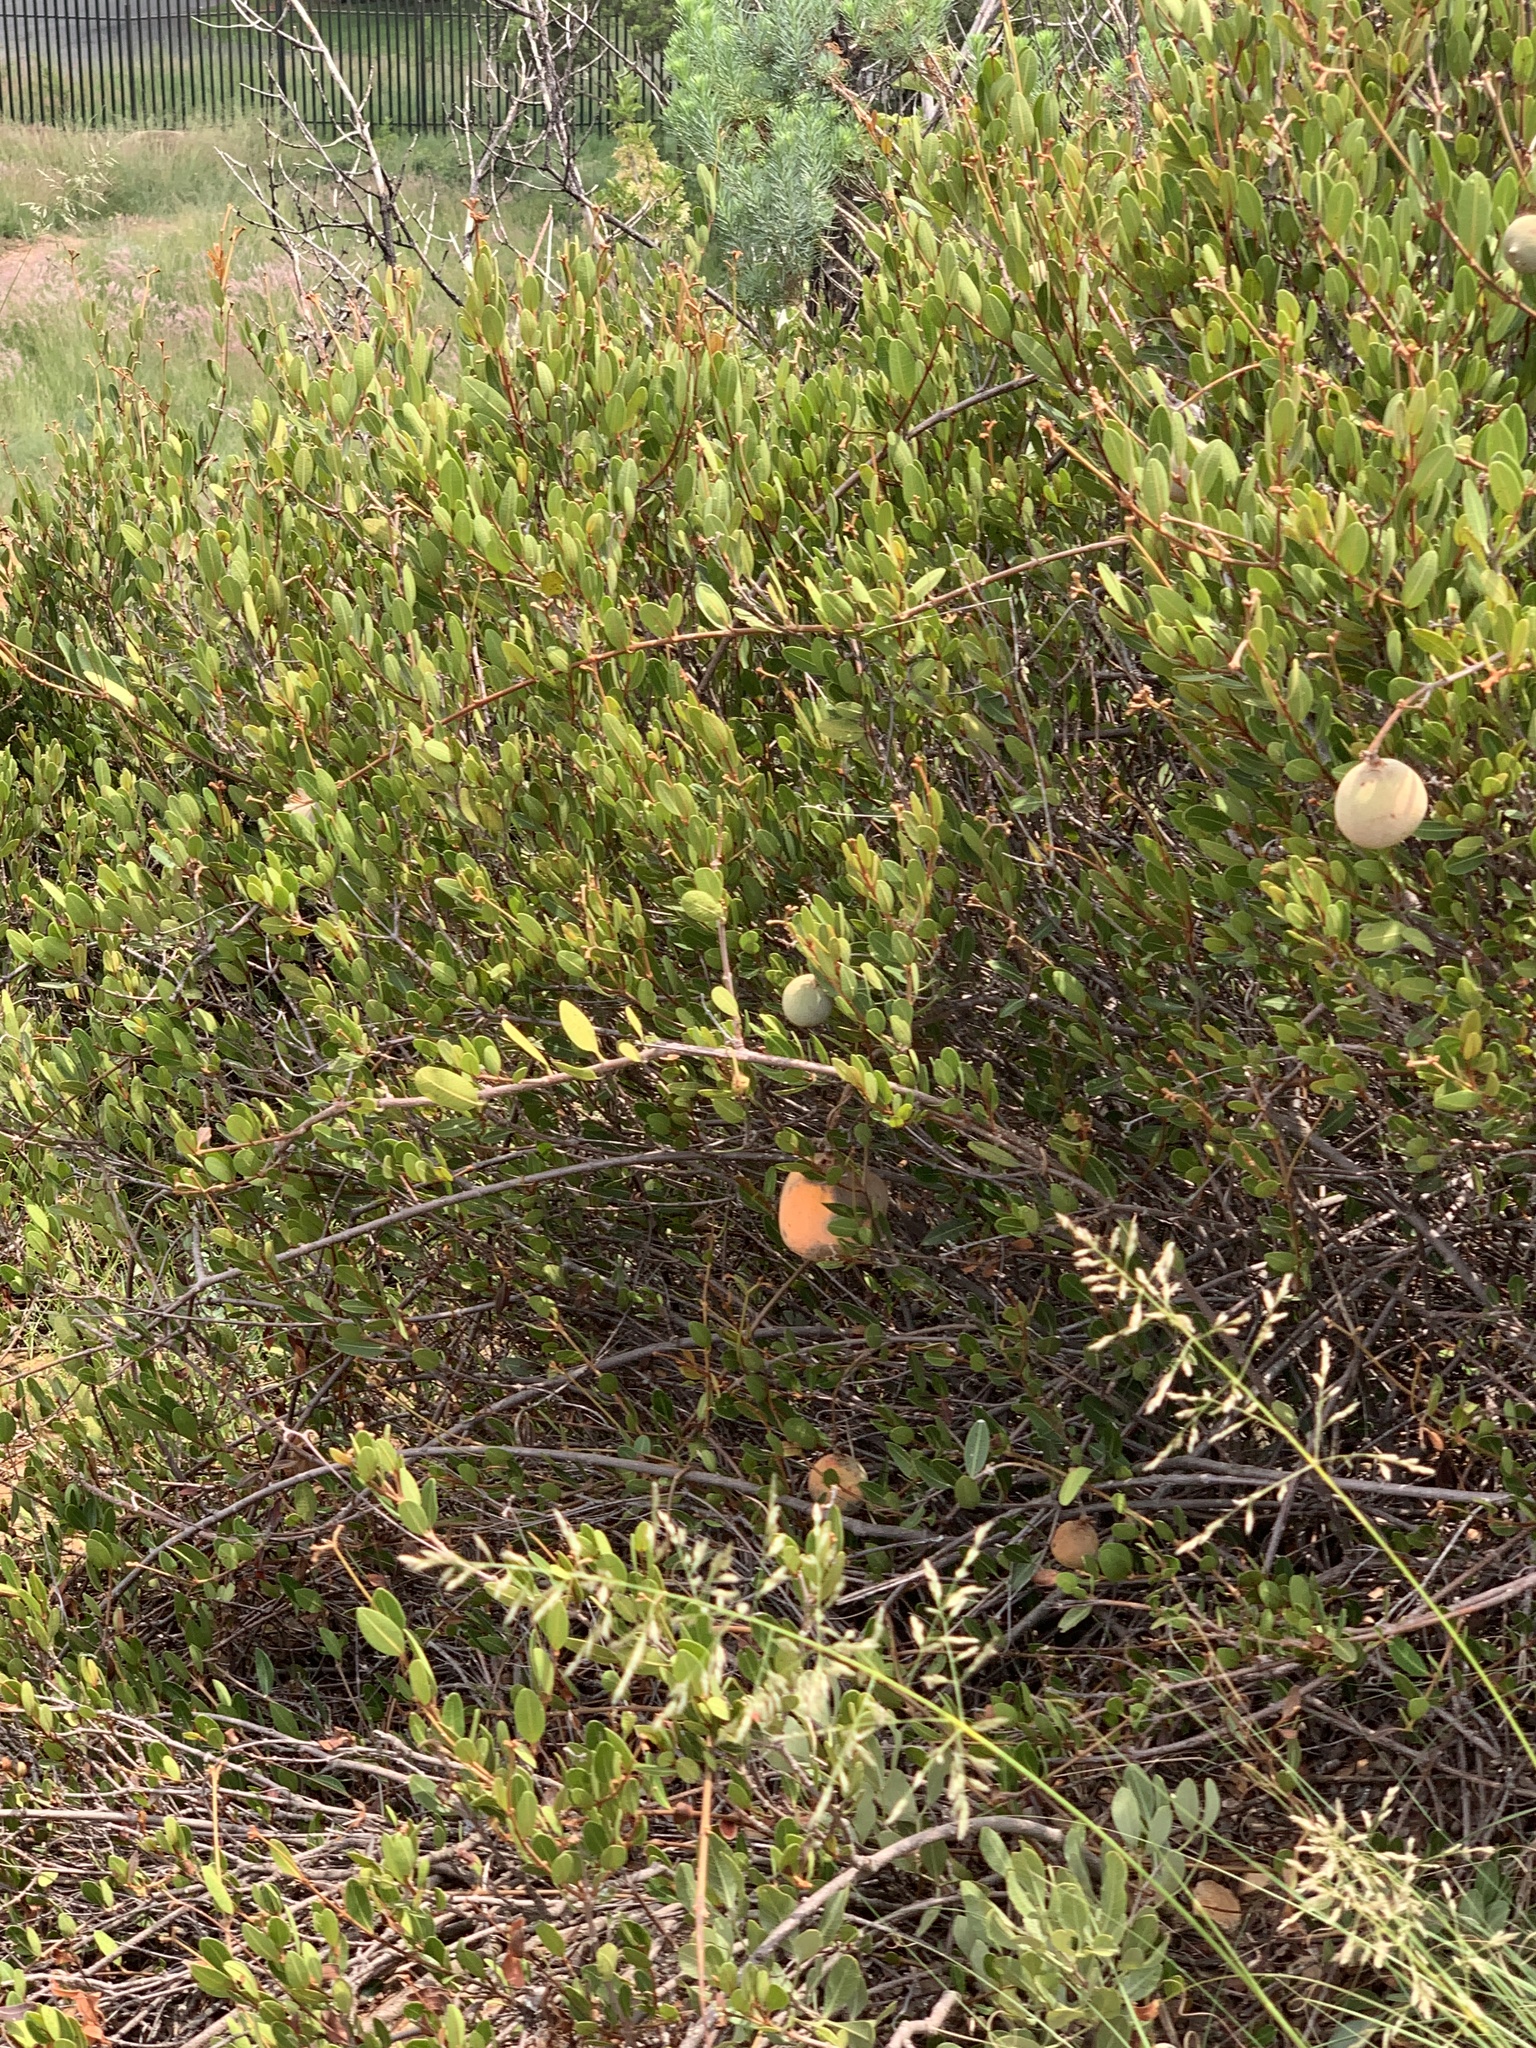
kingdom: Plantae
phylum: Tracheophyta
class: Magnoliopsida
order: Gentianales
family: Apocynaceae
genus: Ancylobothrys
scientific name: Ancylobothrys capensis
